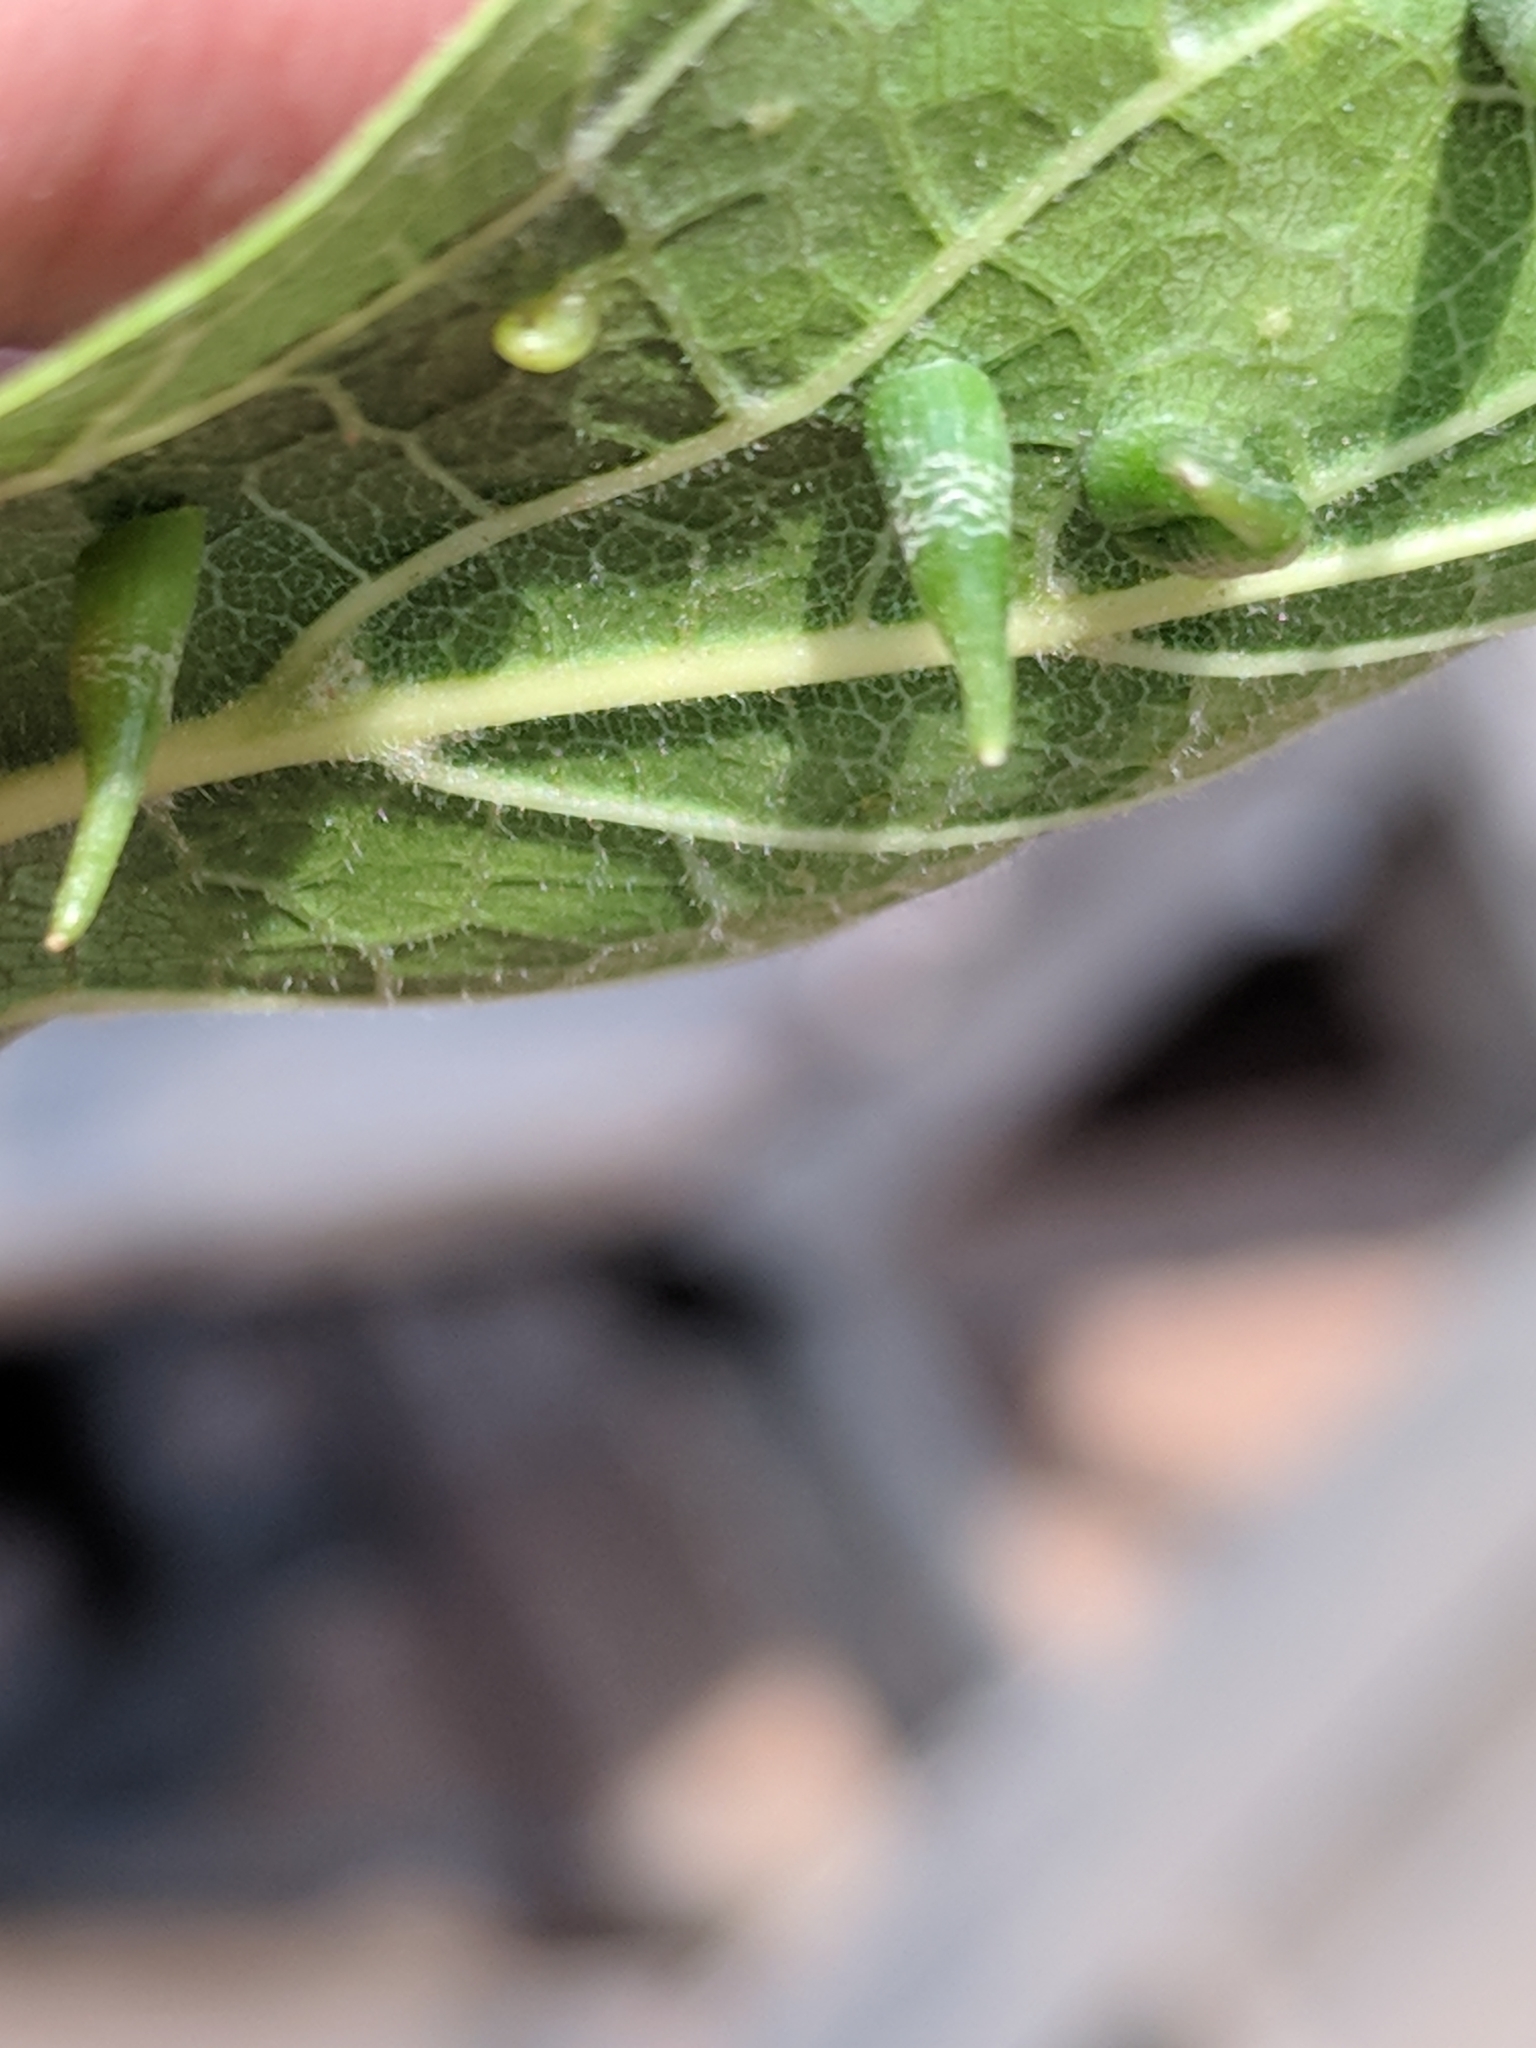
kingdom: Animalia
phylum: Arthropoda
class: Insecta
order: Diptera
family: Cecidomyiidae
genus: Celticecis
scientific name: Celticecis subulata
